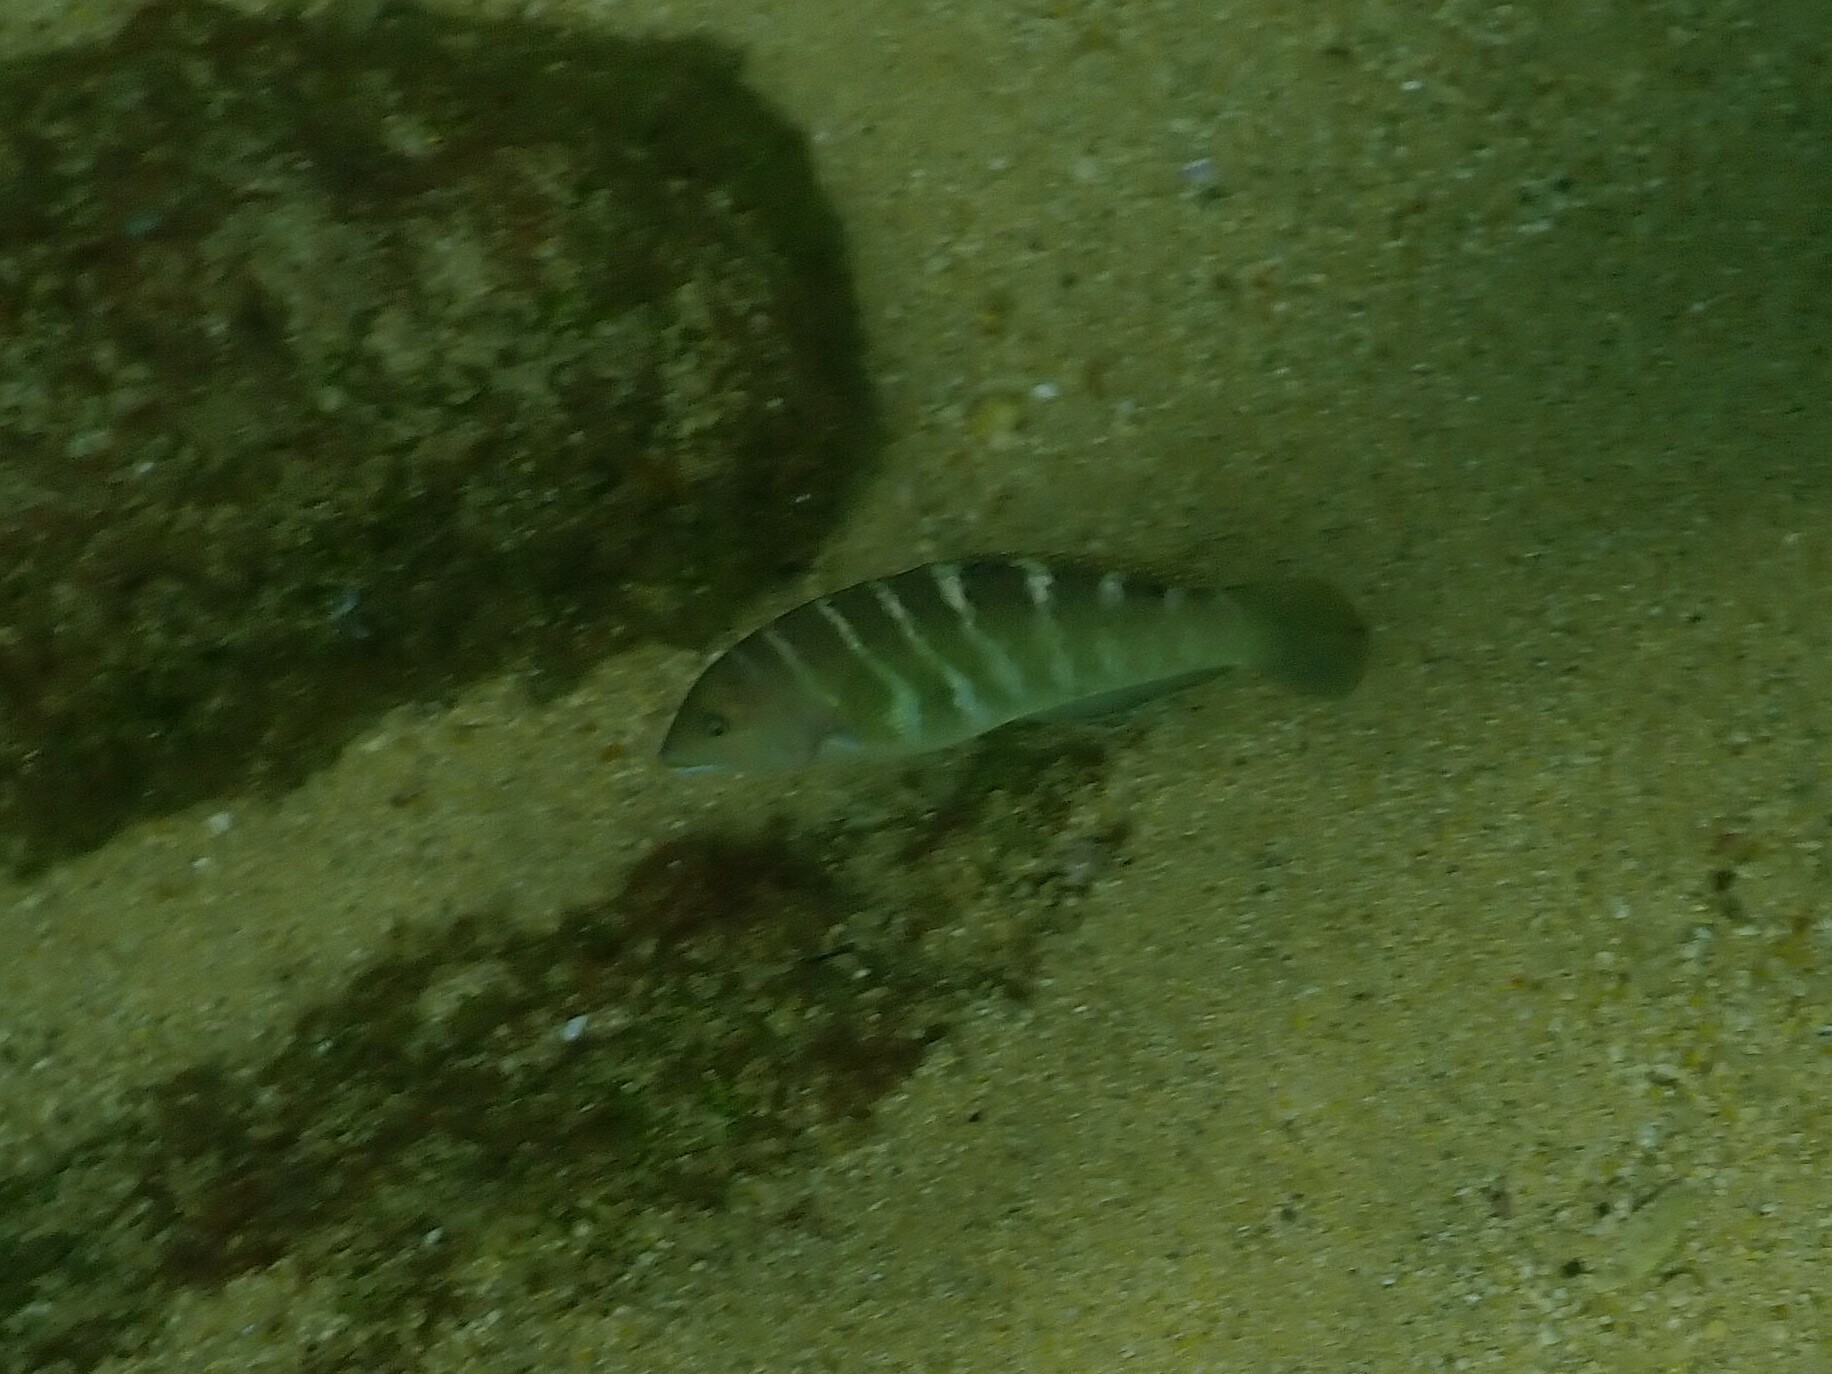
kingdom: Animalia
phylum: Chordata
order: Perciformes
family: Labridae
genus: Halichoeres
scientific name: Halichoeres notospilus
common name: Banded wrasse
